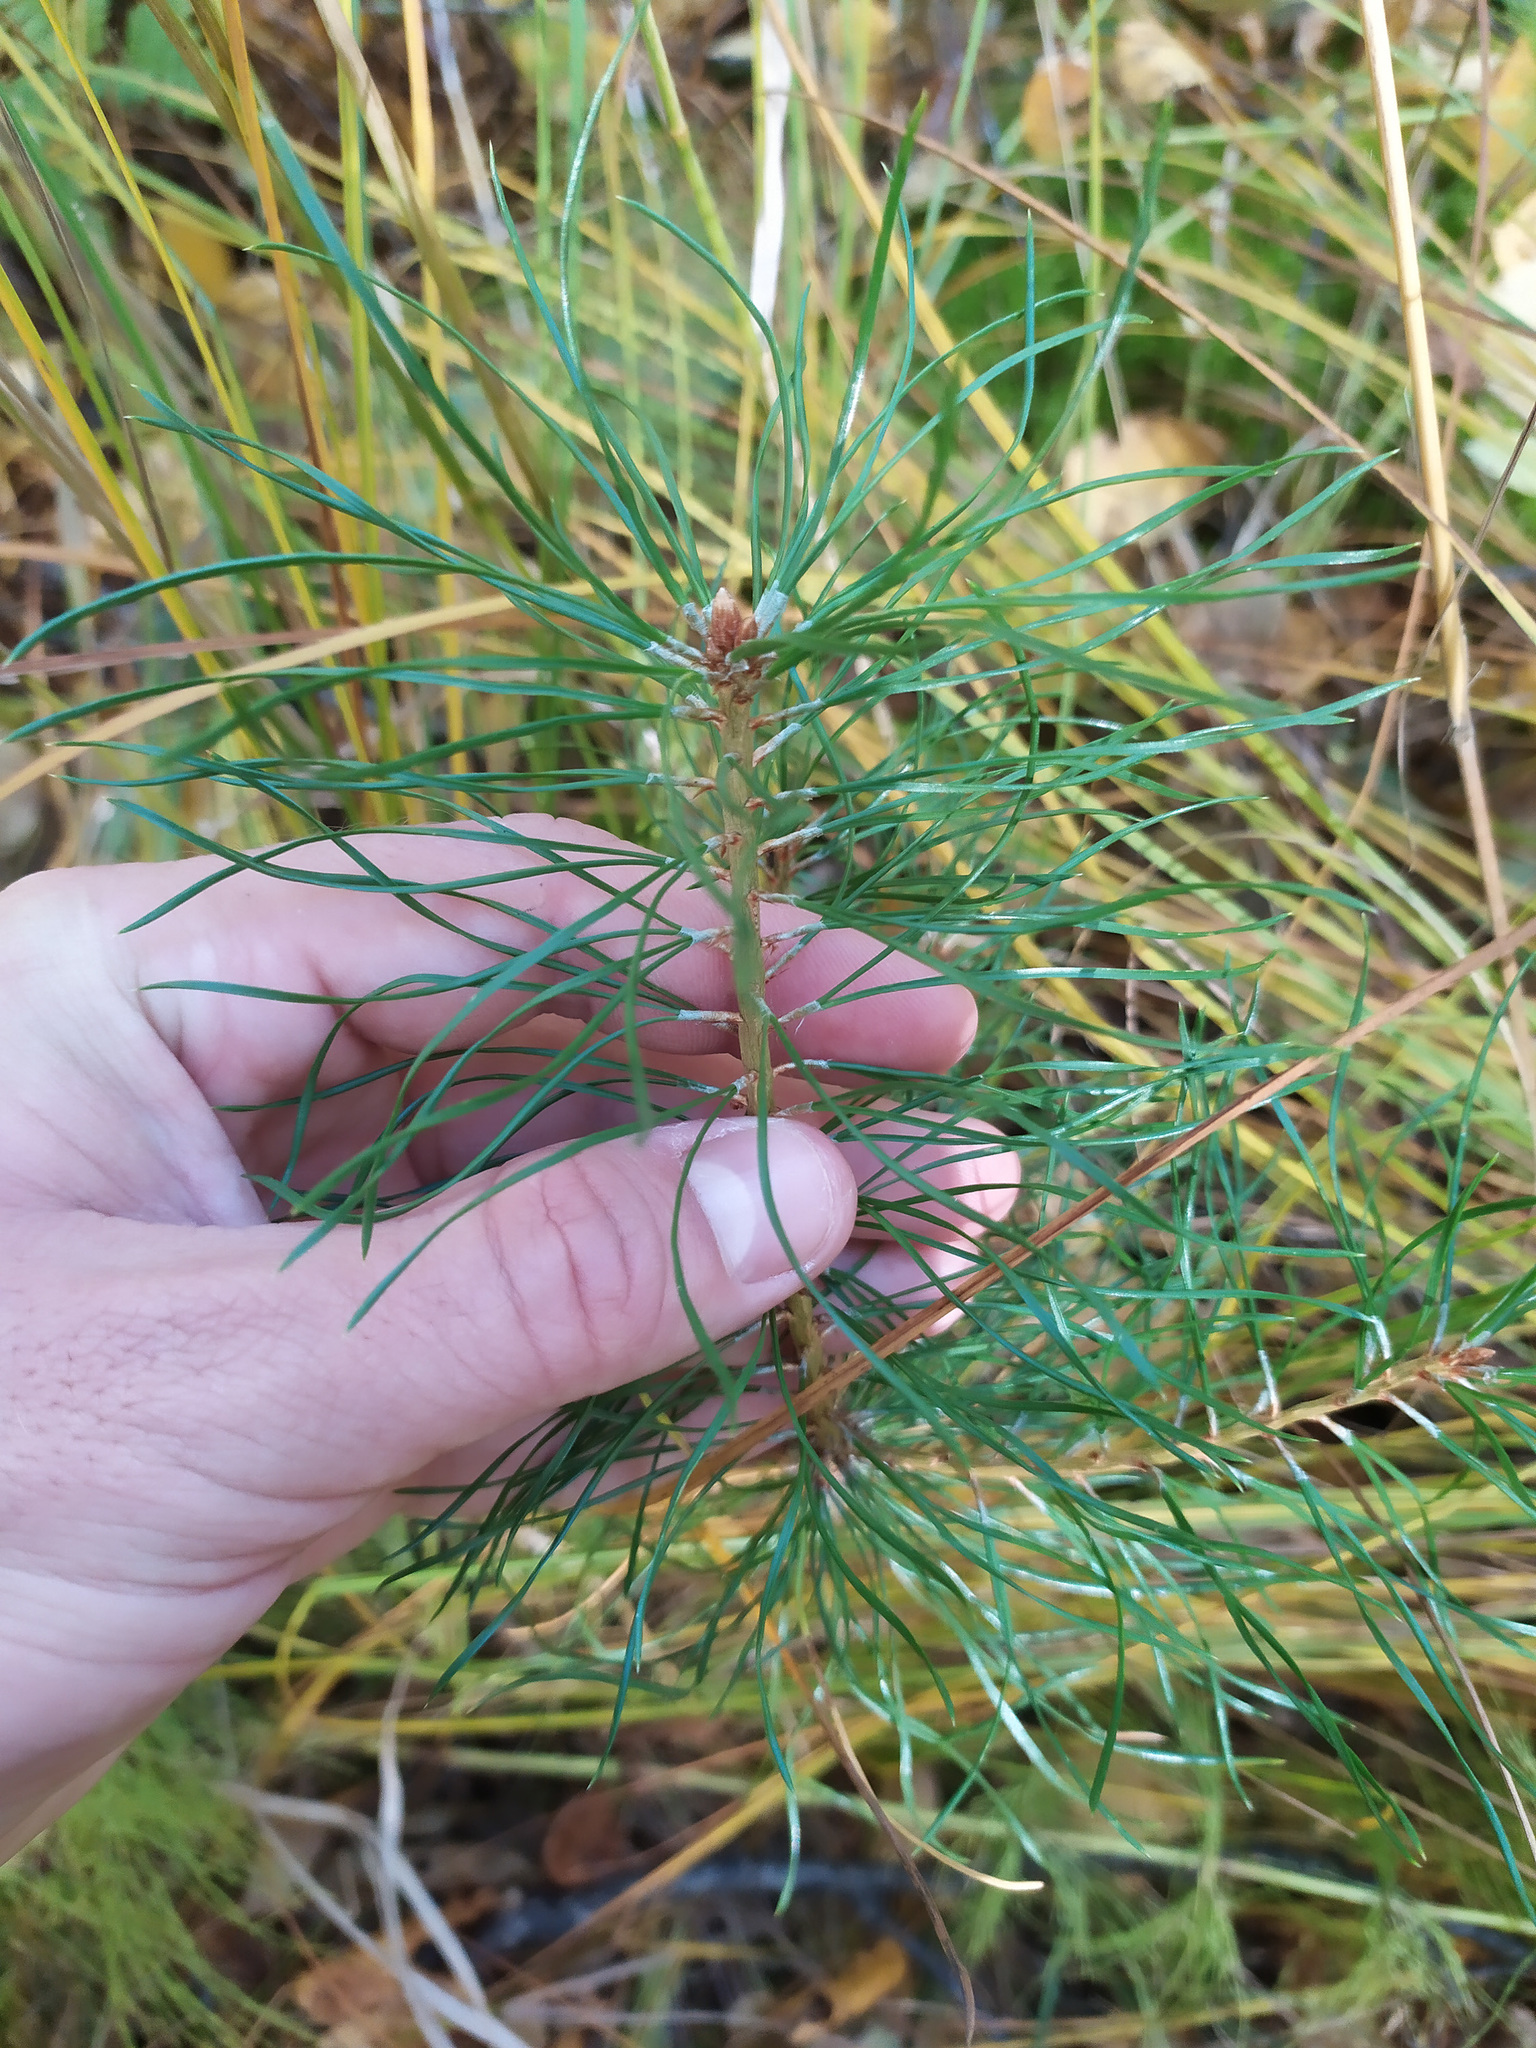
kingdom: Plantae
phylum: Tracheophyta
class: Pinopsida
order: Pinales
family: Pinaceae
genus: Pinus
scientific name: Pinus sylvestris
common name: Scots pine
